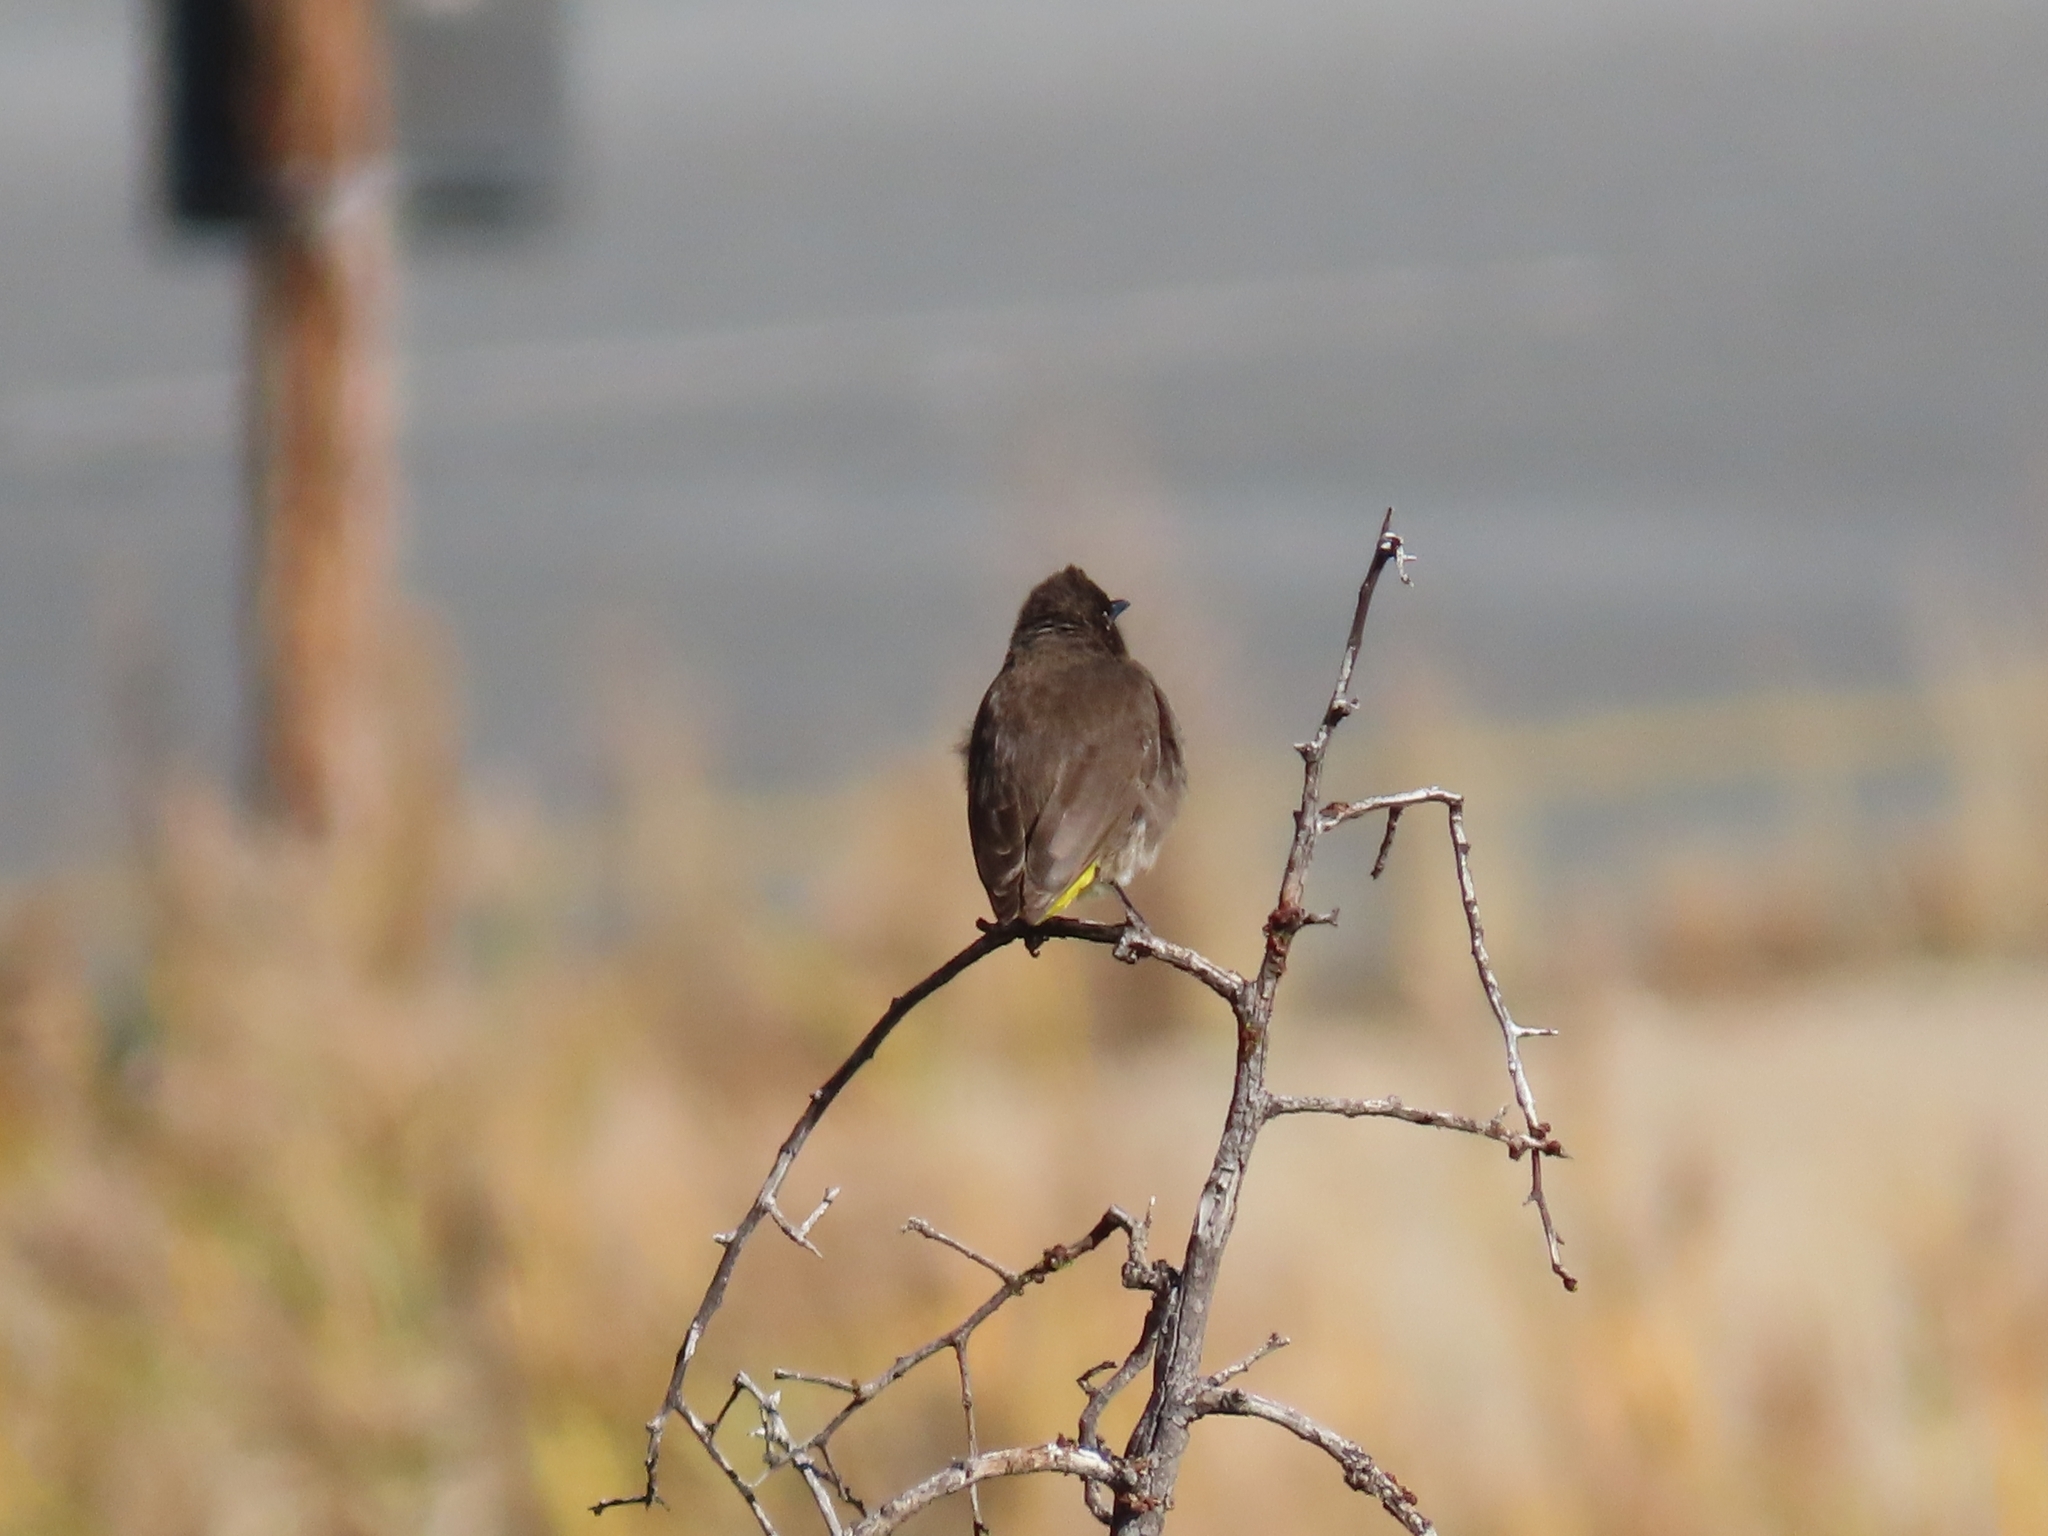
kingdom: Animalia
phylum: Chordata
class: Aves
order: Passeriformes
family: Pycnonotidae
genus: Pycnonotus
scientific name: Pycnonotus capensis
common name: Cape bulbul
